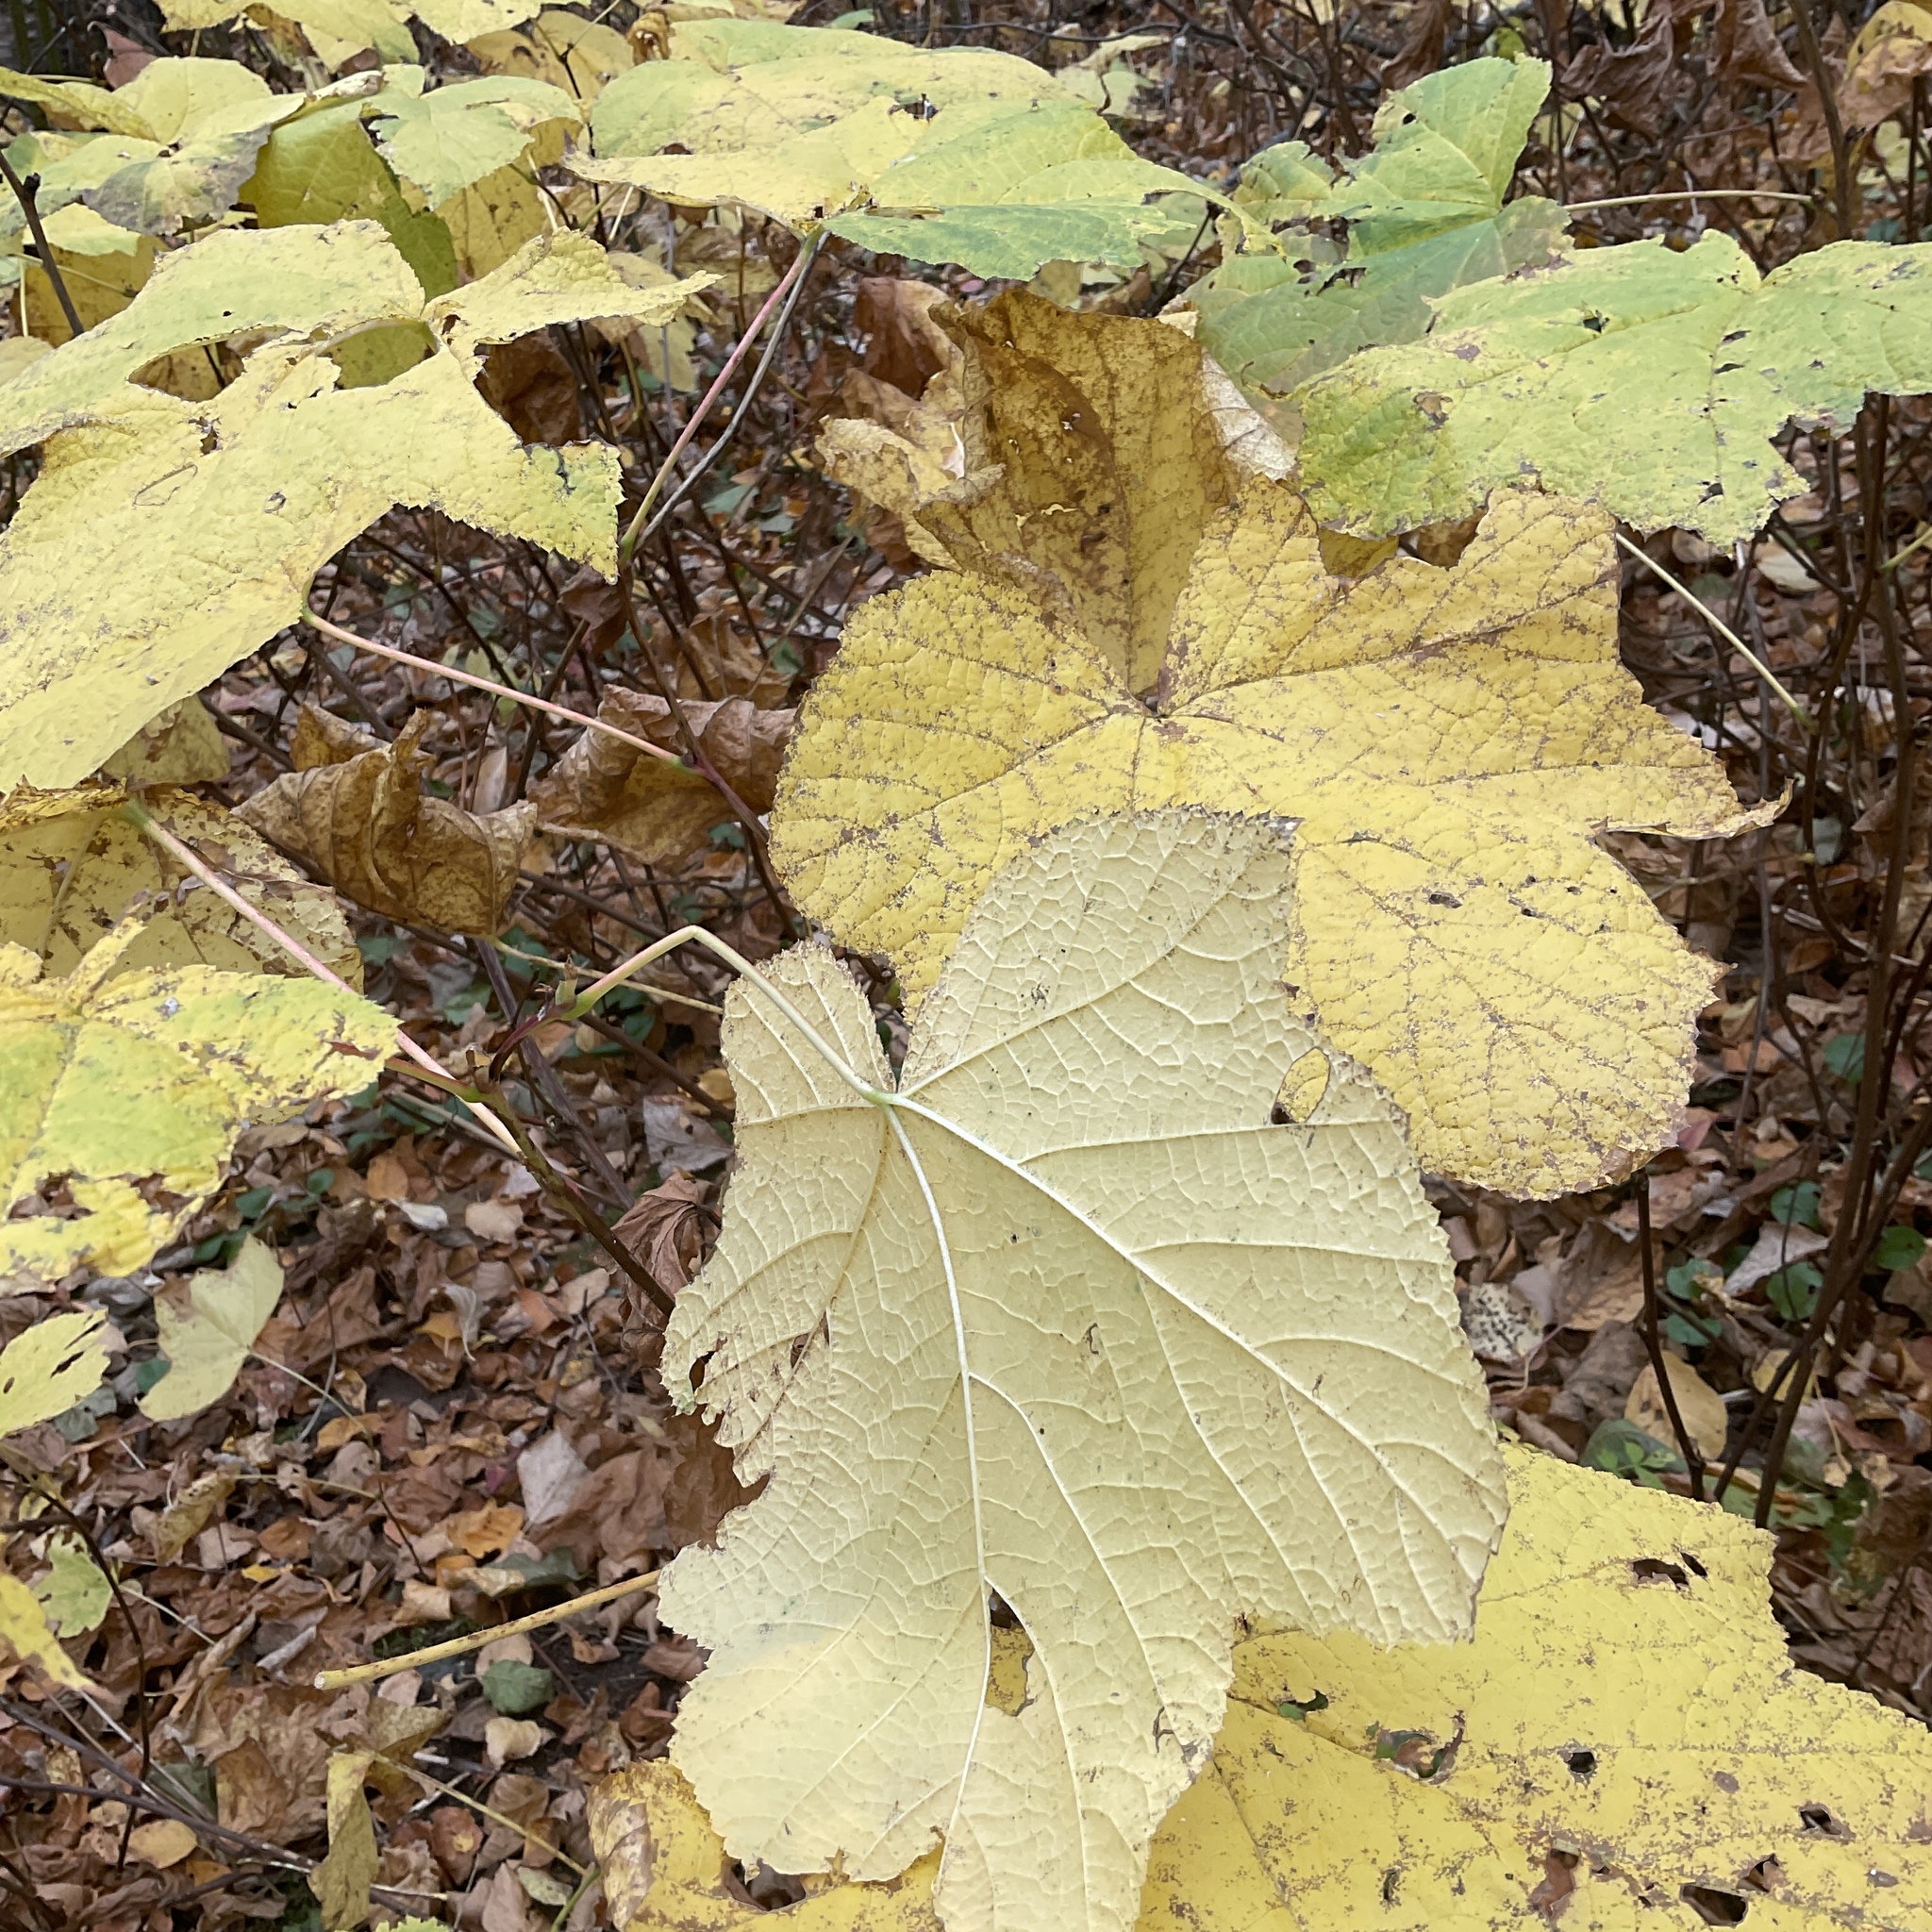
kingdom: Plantae
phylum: Tracheophyta
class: Magnoliopsida
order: Rosales
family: Rosaceae
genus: Rubus
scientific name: Rubus parviflorus
